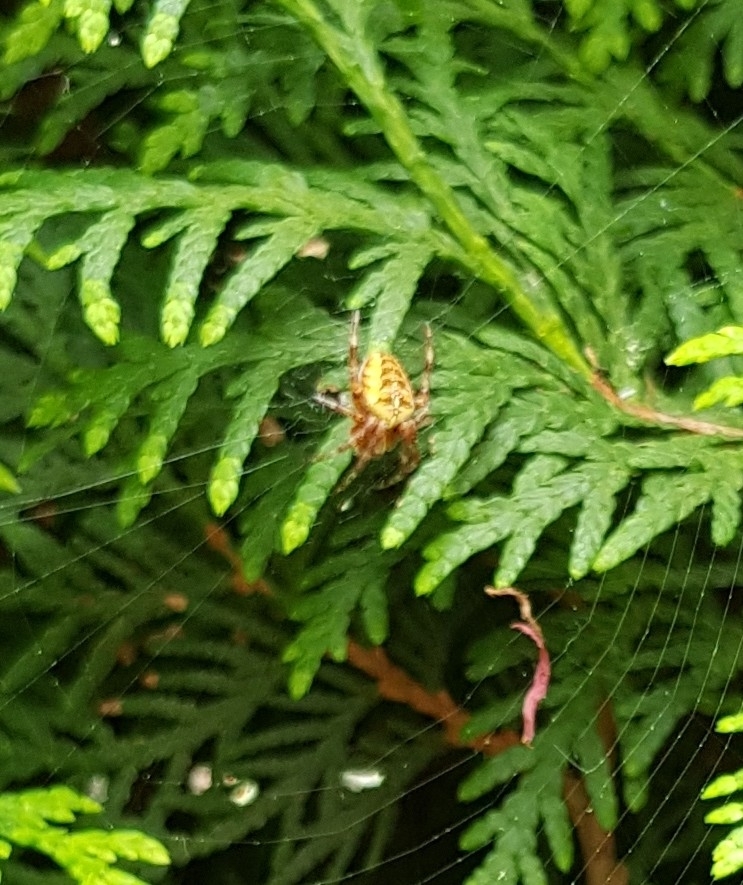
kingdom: Animalia
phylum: Arthropoda
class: Arachnida
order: Araneae
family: Araneidae
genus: Araneus
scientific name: Araneus diadematus
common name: Cross orbweaver
